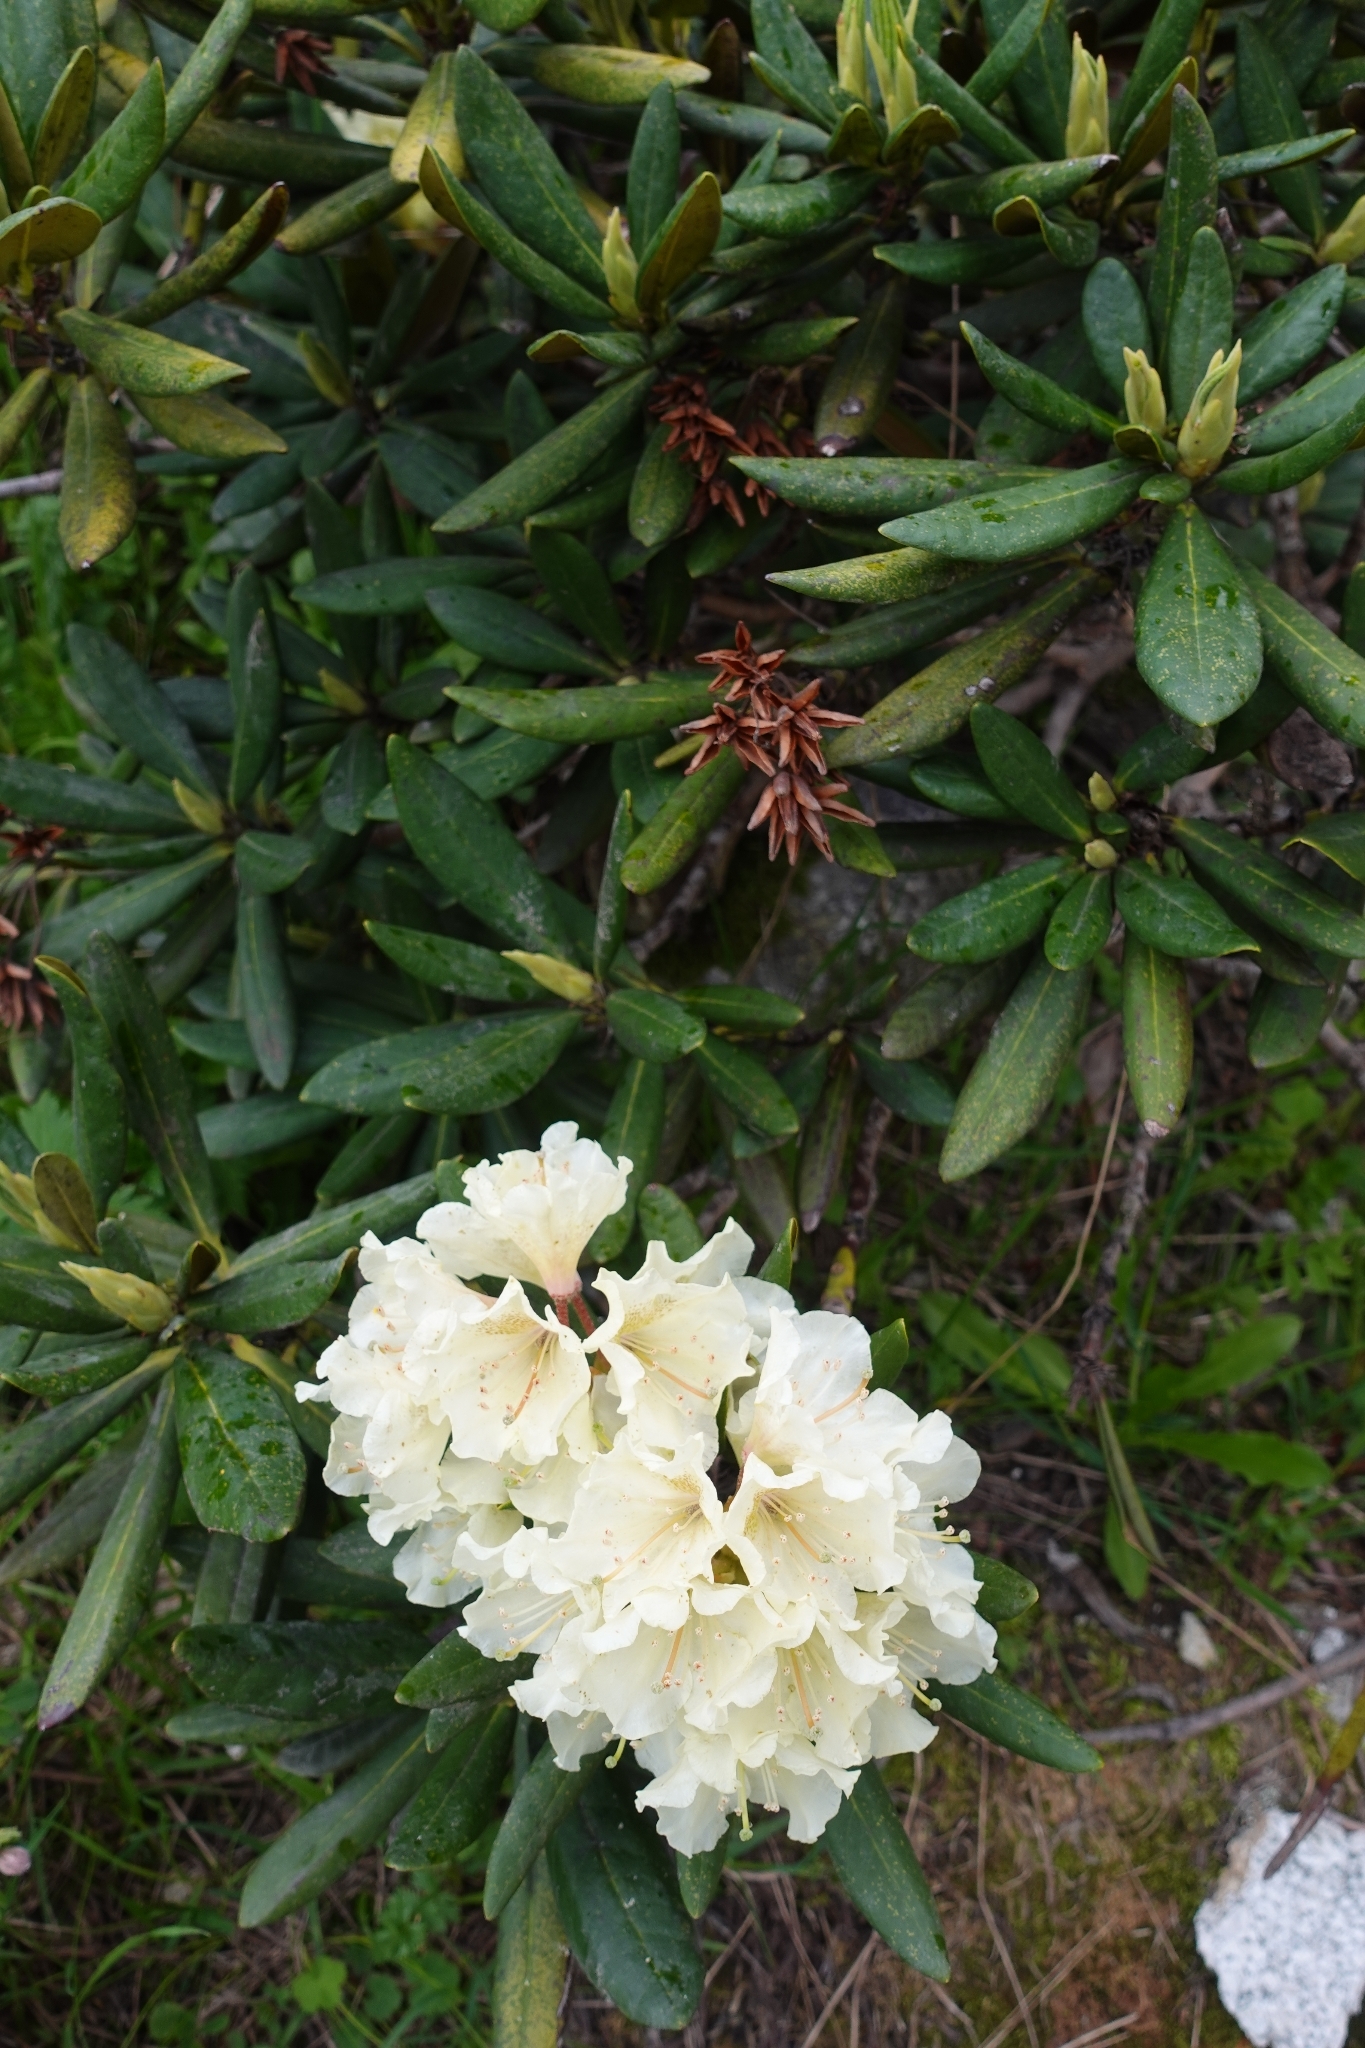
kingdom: Plantae
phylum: Tracheophyta
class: Magnoliopsida
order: Ericales
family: Ericaceae
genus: Rhododendron
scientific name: Rhododendron caucasicum
